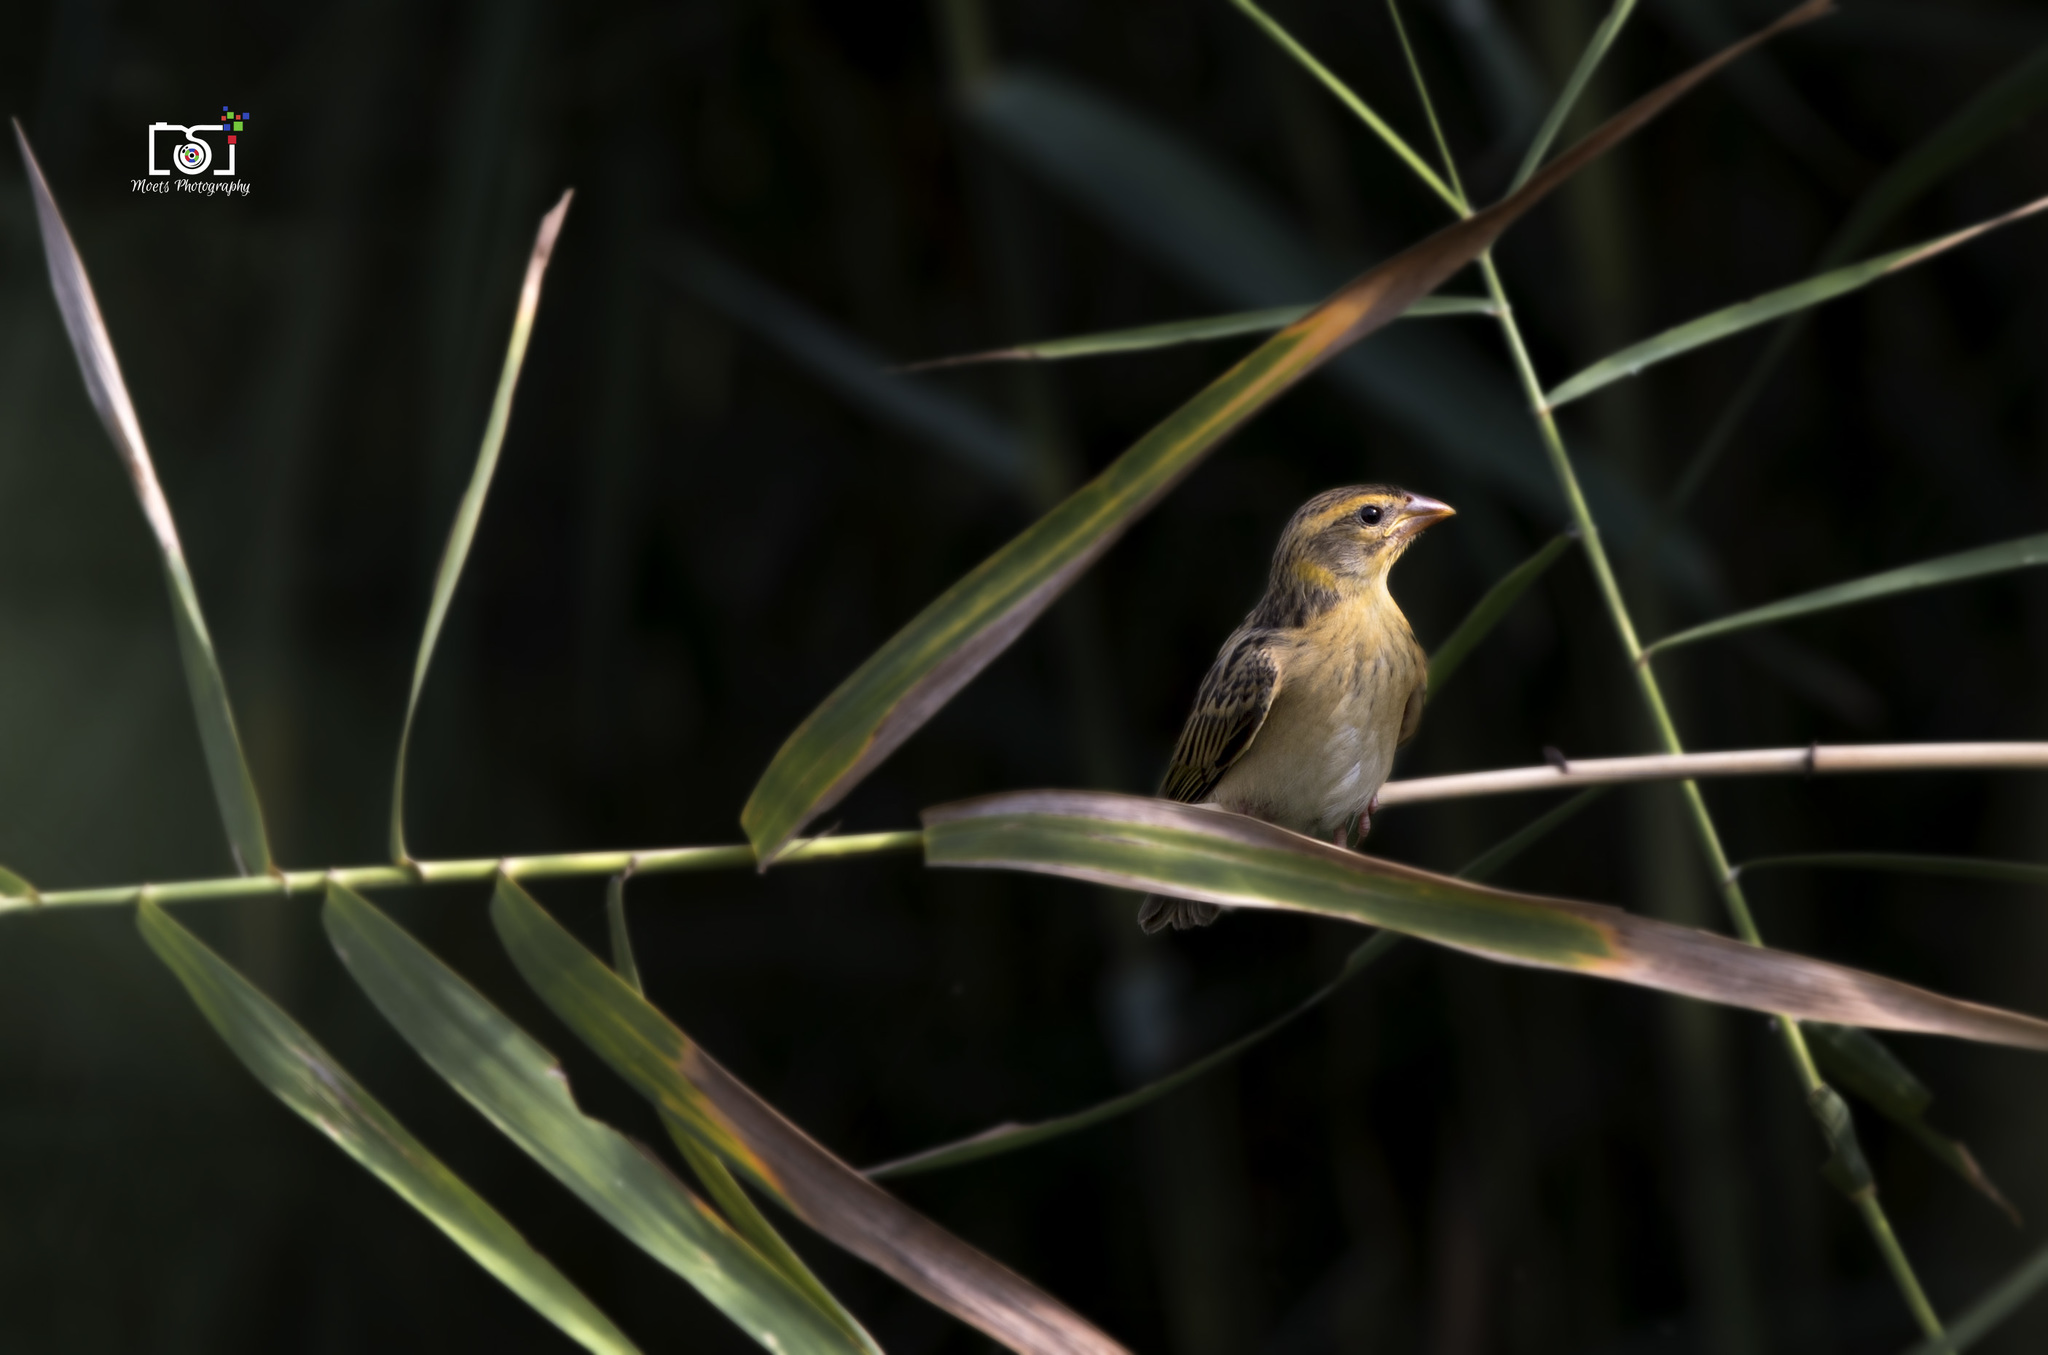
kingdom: Animalia
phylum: Chordata
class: Aves
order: Passeriformes
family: Ploceidae
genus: Ploceus
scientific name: Ploceus philippinus
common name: Baya weaver
